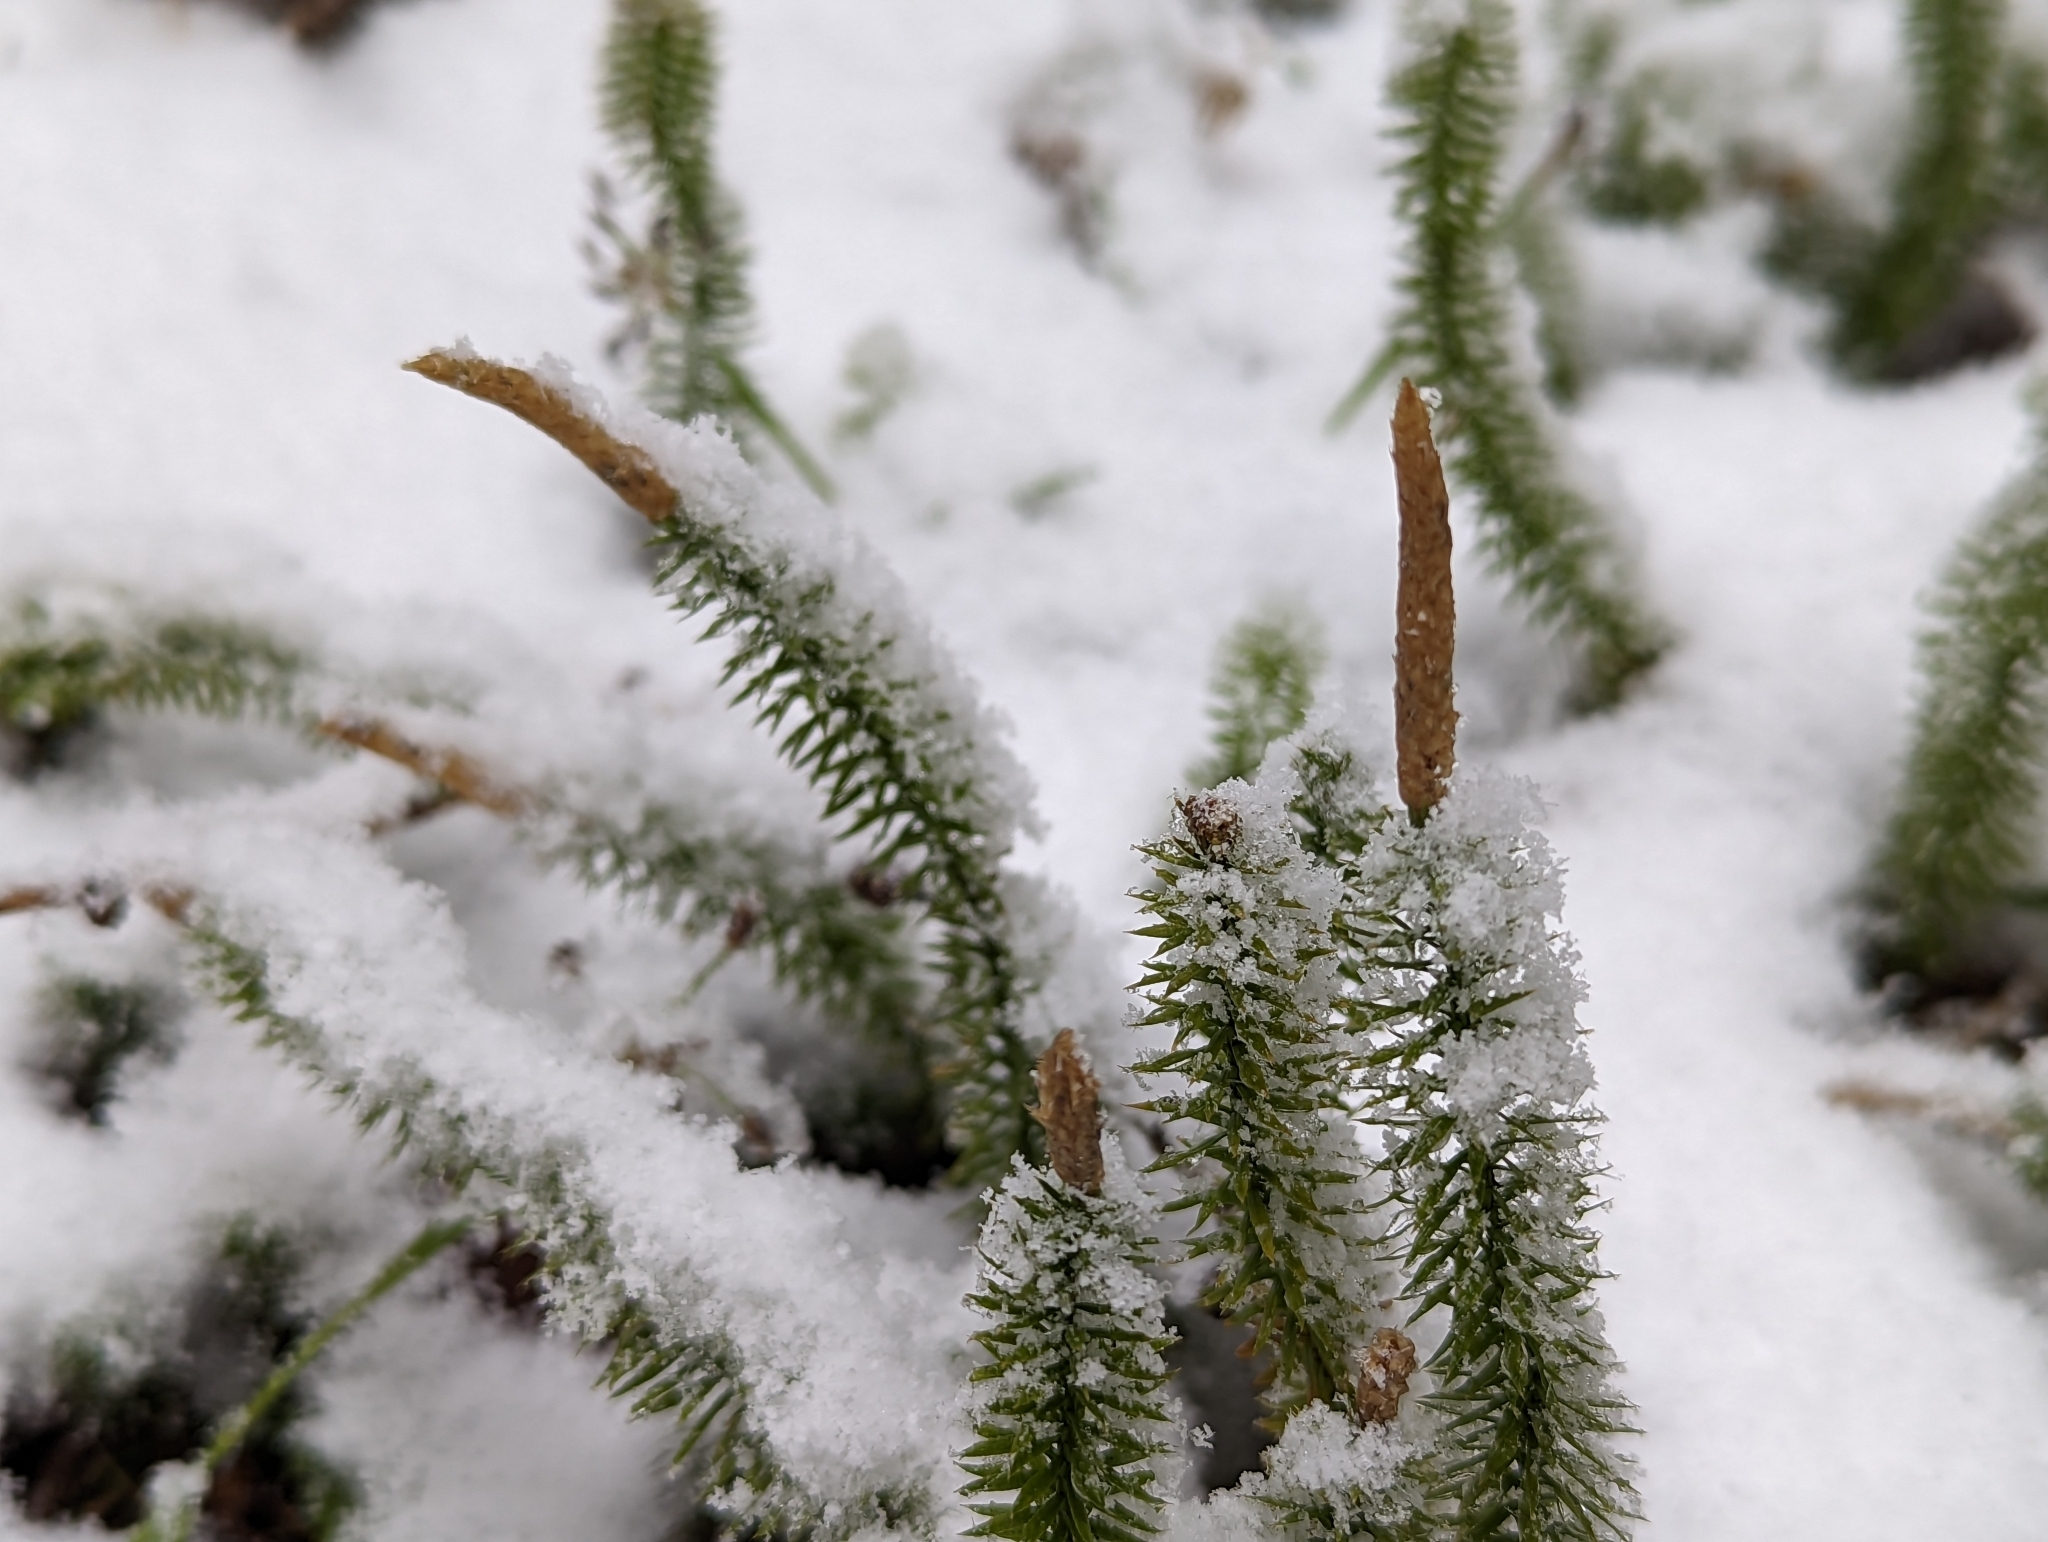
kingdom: Plantae
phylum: Tracheophyta
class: Lycopodiopsida
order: Lycopodiales
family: Lycopodiaceae
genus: Spinulum
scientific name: Spinulum annotinum
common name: Interrupted club-moss
